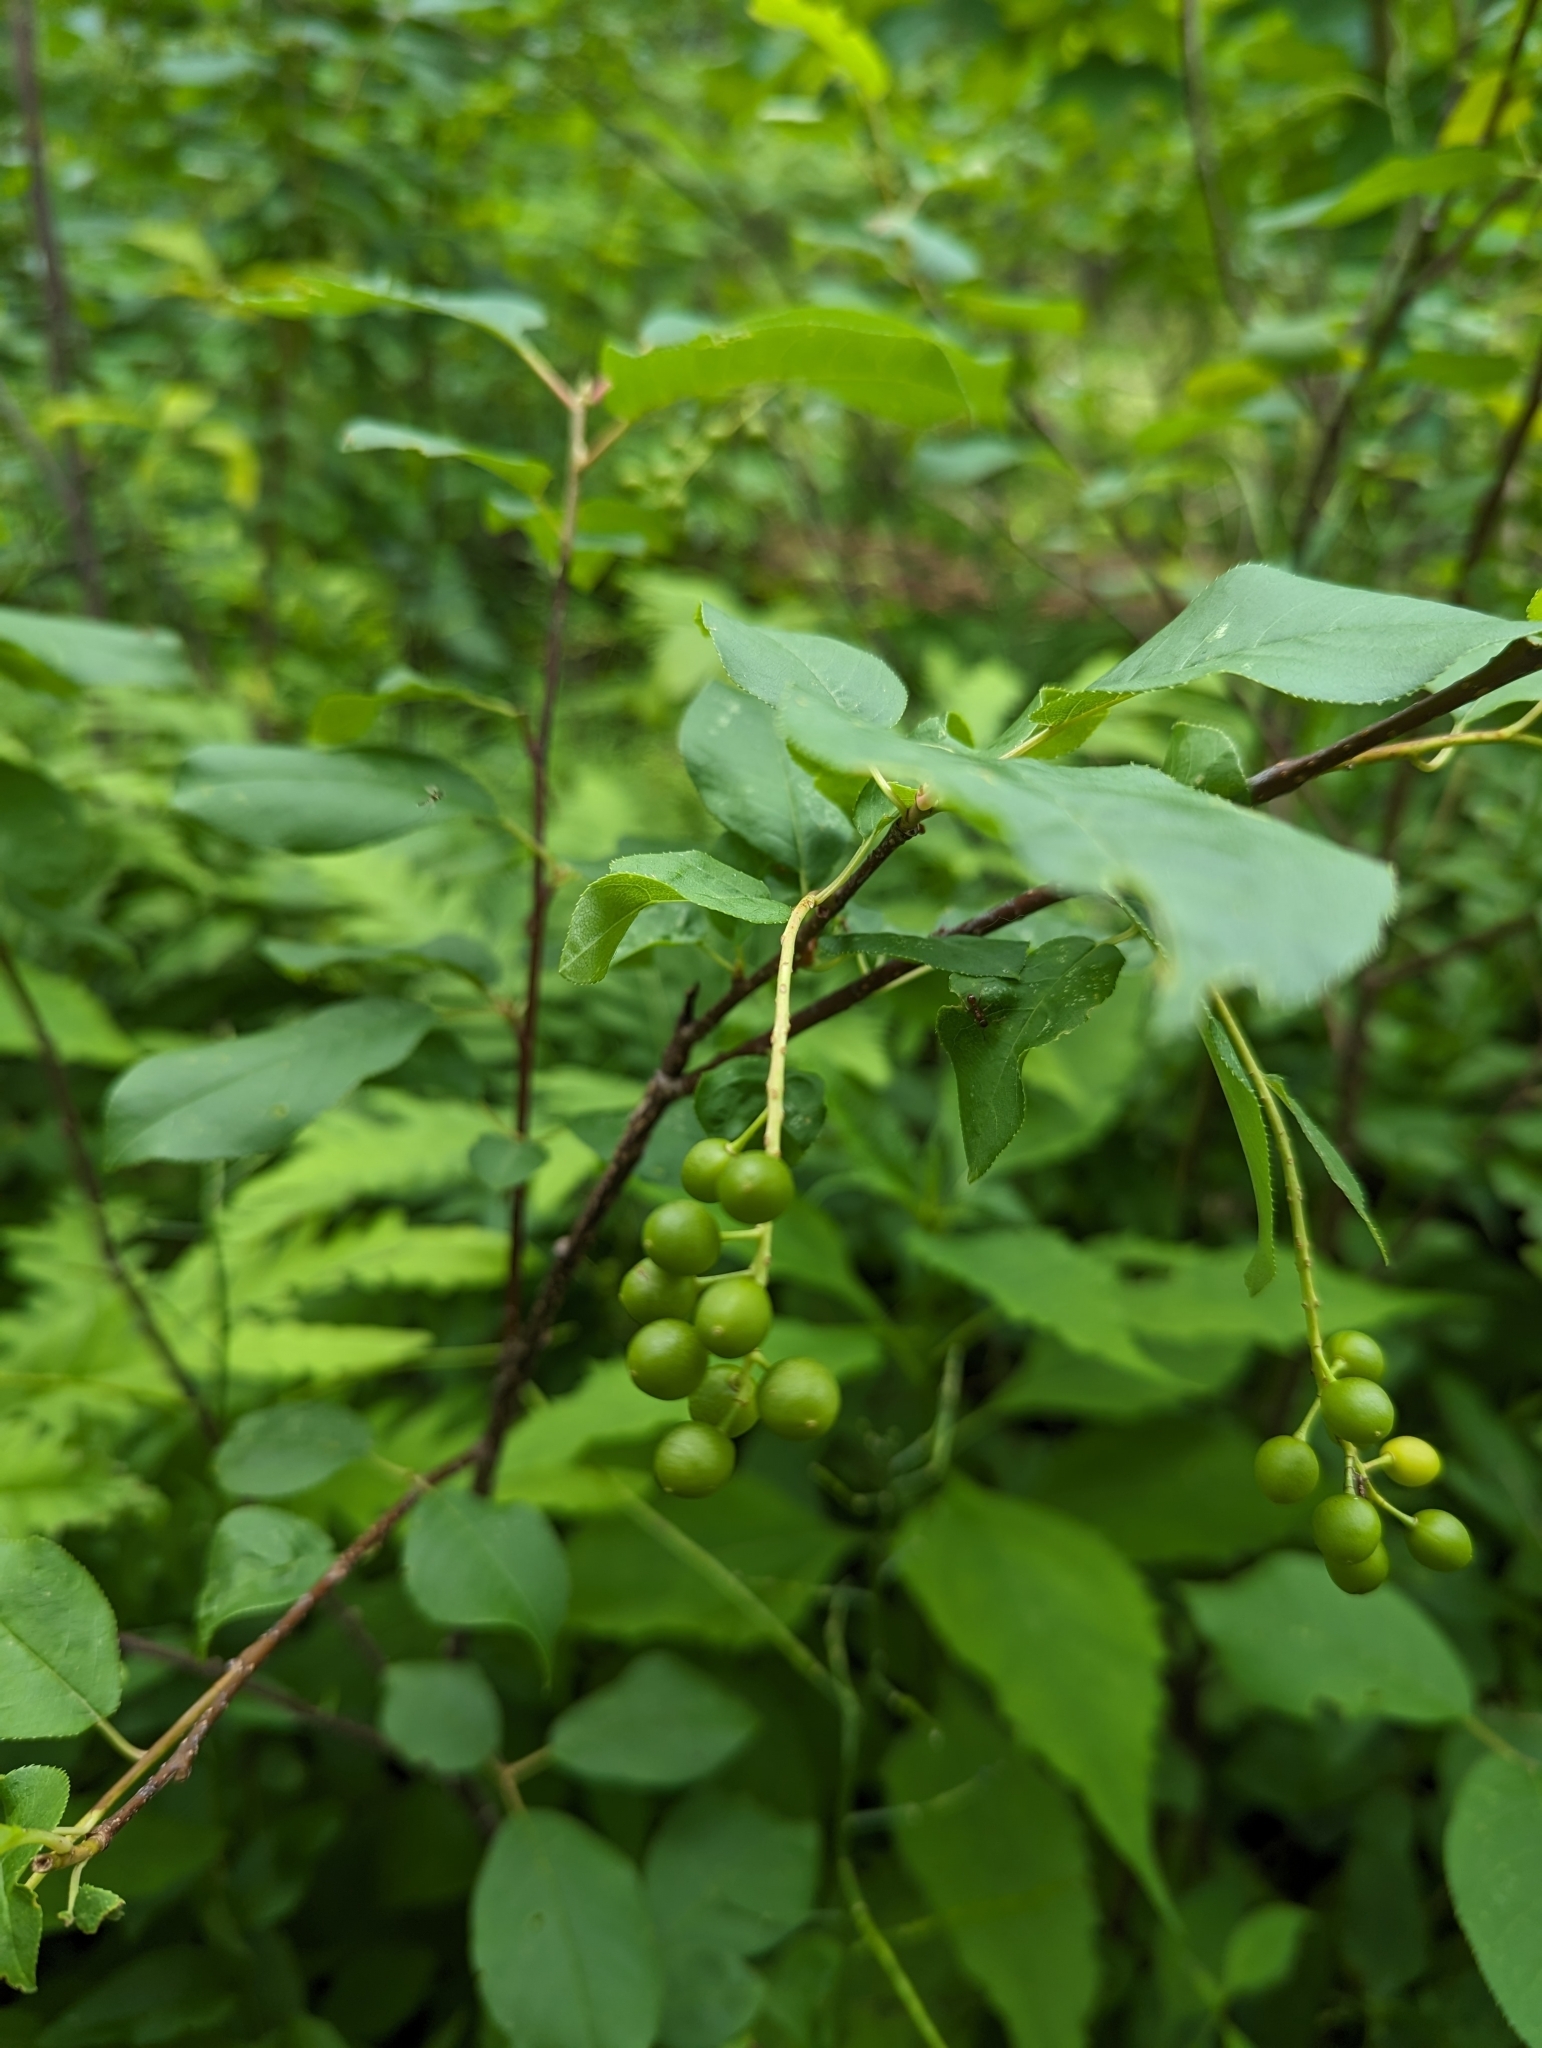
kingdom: Plantae
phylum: Tracheophyta
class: Magnoliopsida
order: Rosales
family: Rosaceae
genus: Prunus
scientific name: Prunus virginiana
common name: Chokecherry
